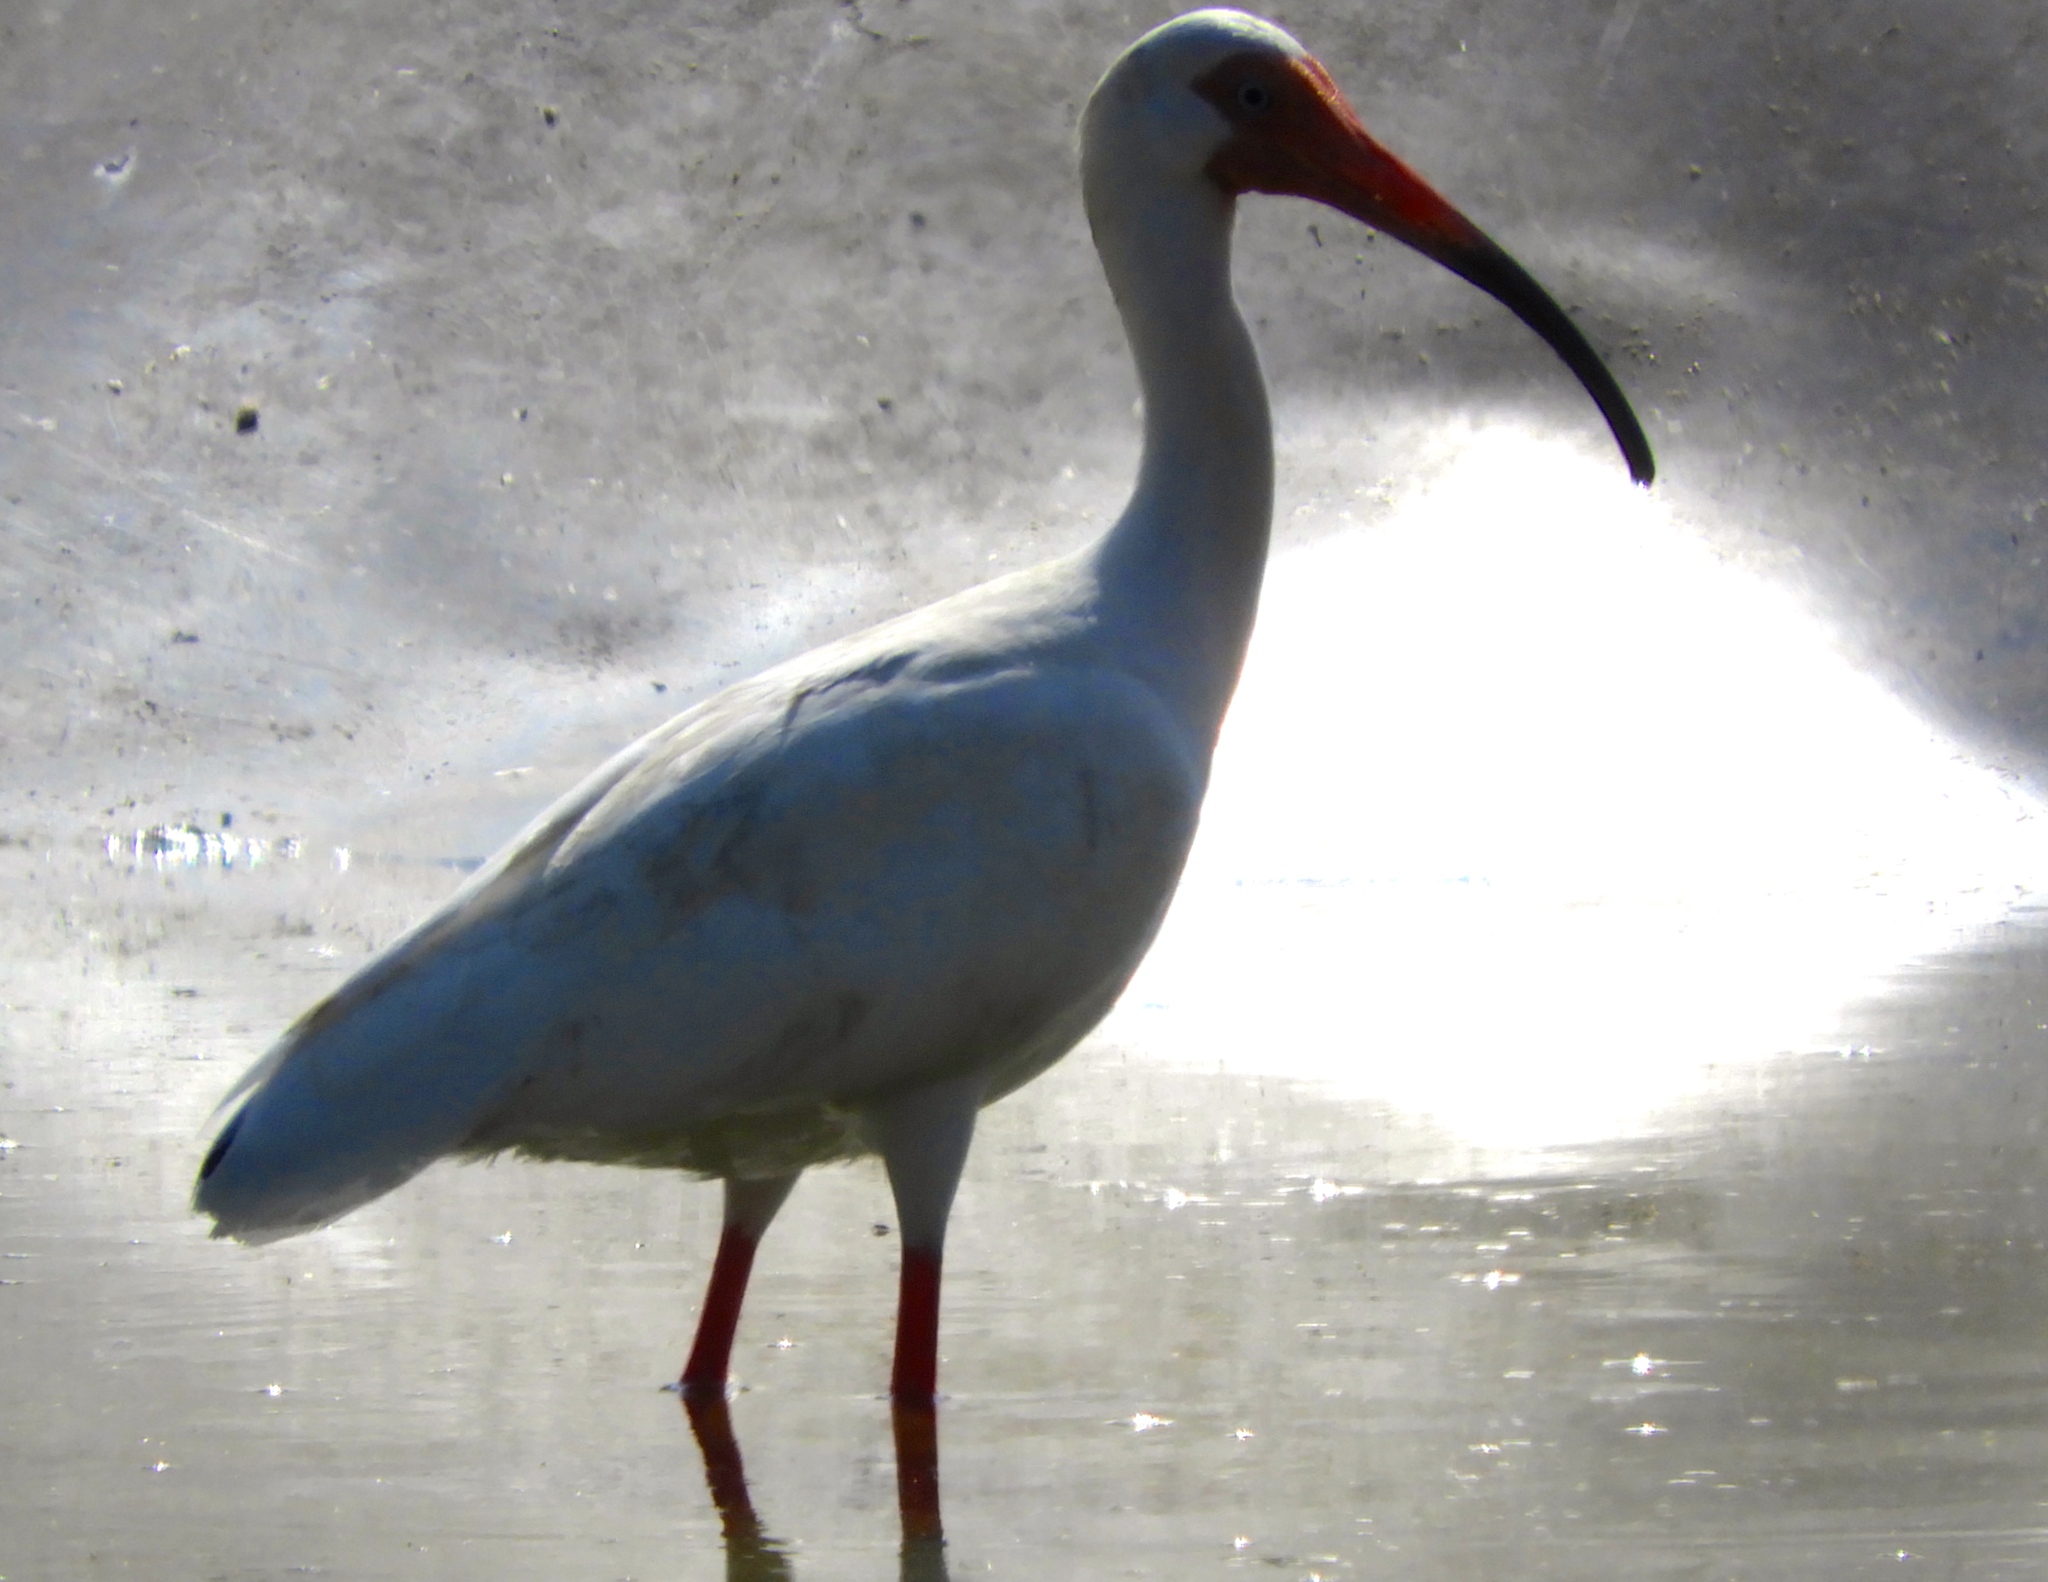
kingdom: Animalia
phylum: Chordata
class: Aves
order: Pelecaniformes
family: Threskiornithidae
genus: Eudocimus
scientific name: Eudocimus albus
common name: White ibis
